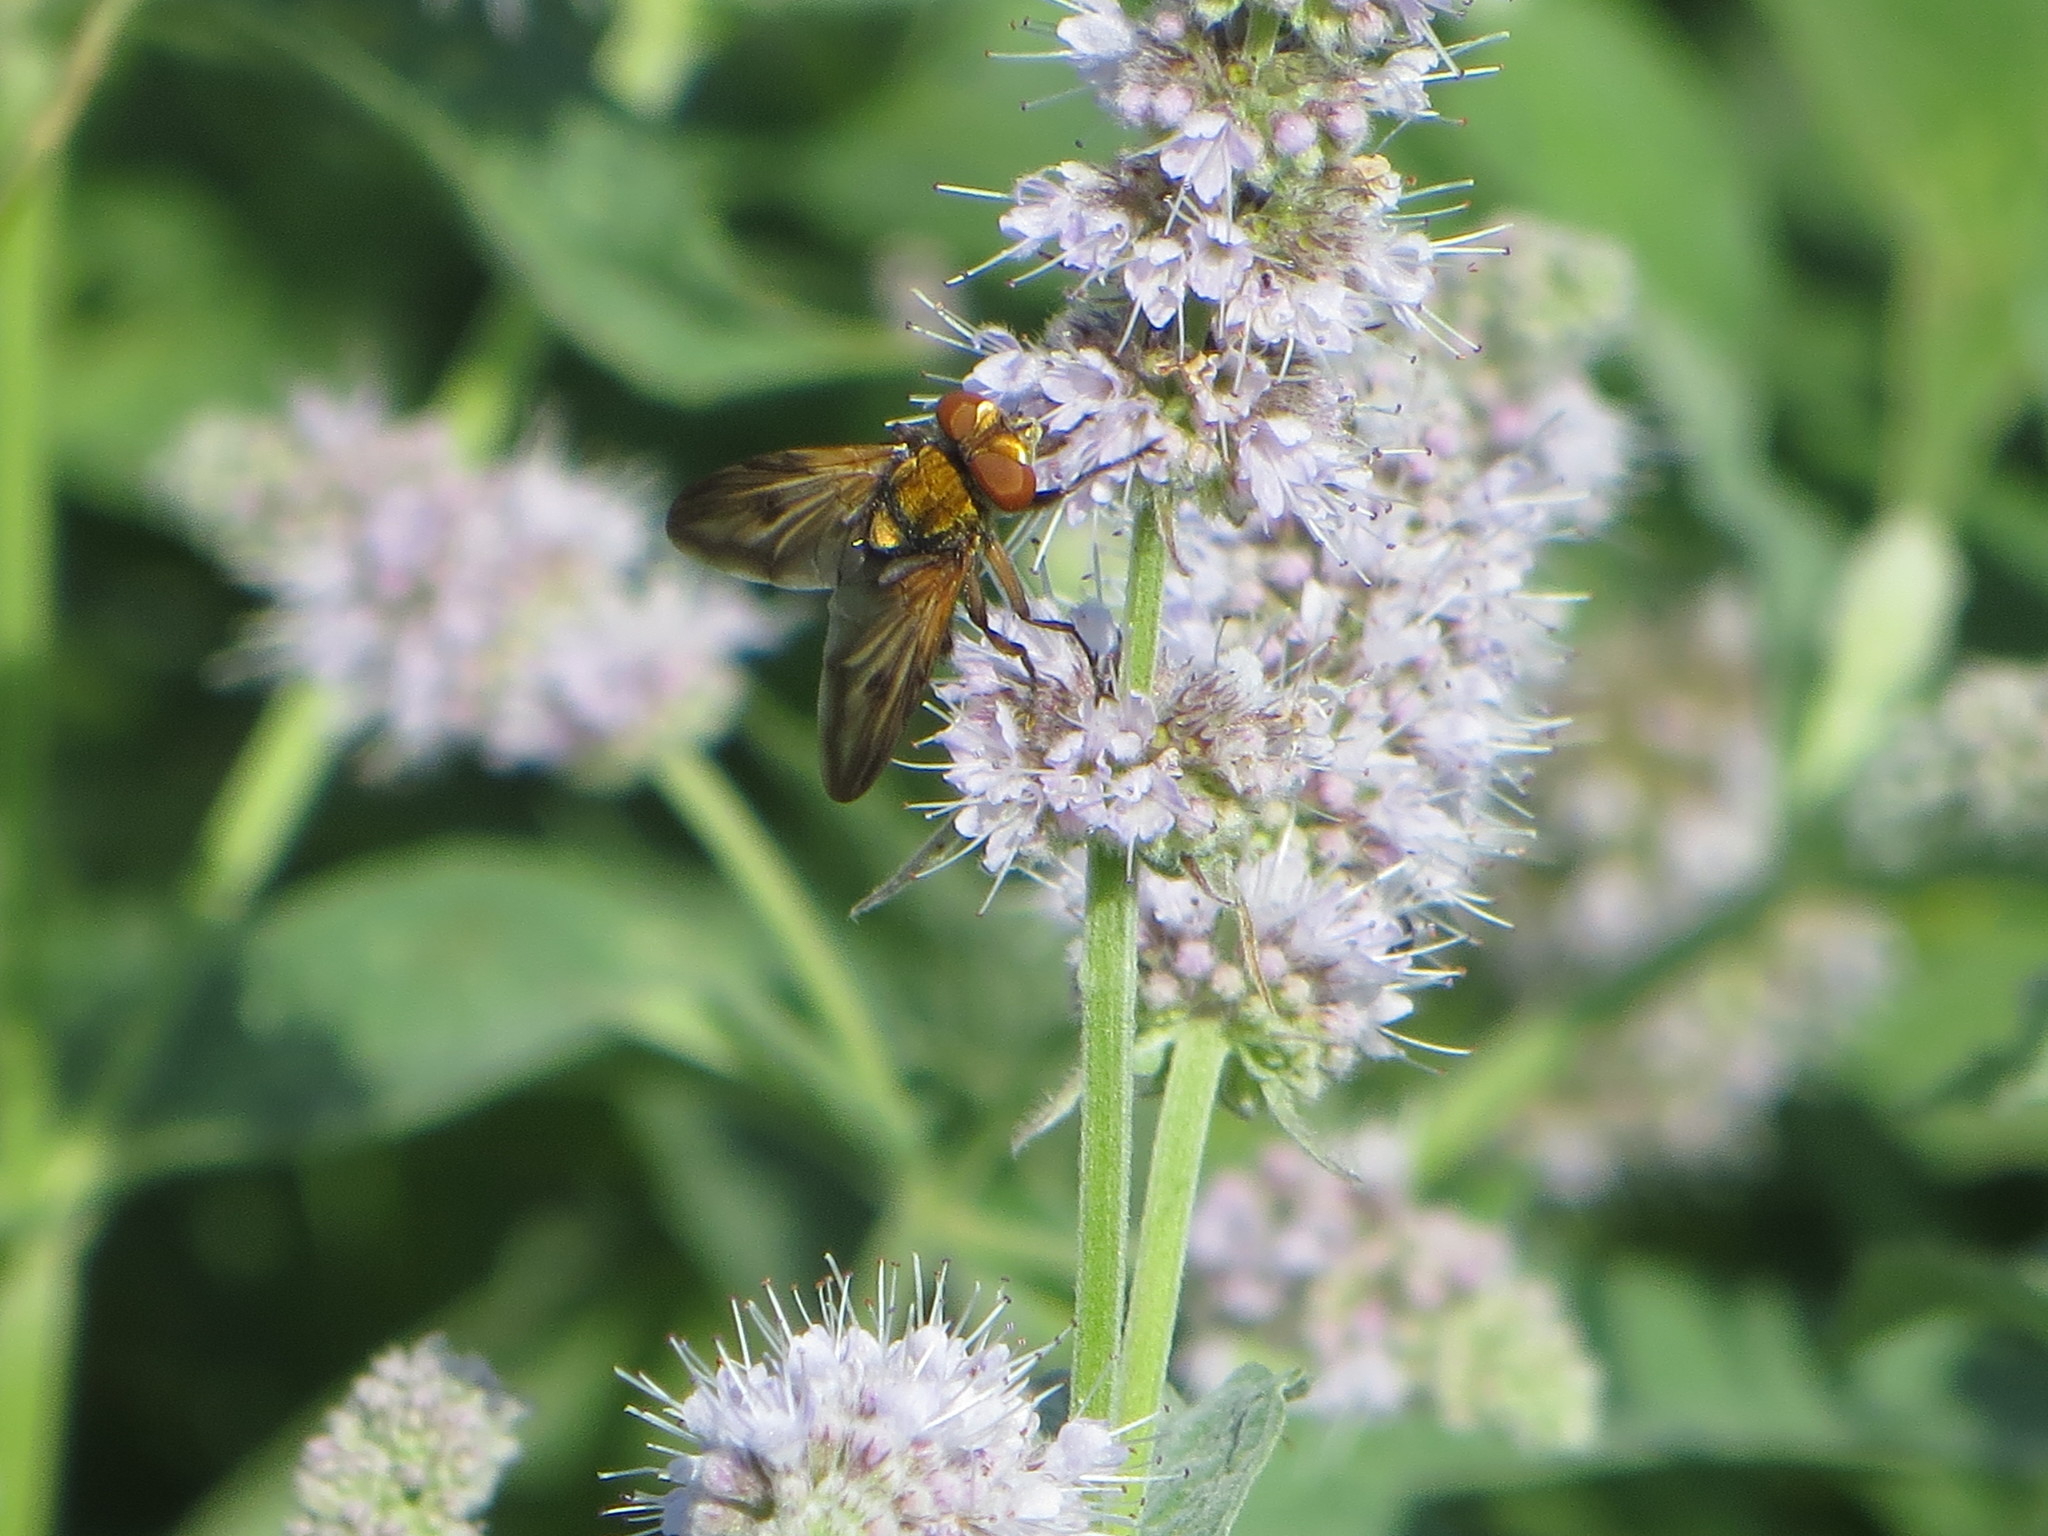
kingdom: Animalia
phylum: Arthropoda
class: Insecta
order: Diptera
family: Tachinidae
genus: Ectophasia
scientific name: Ectophasia crassipennis
